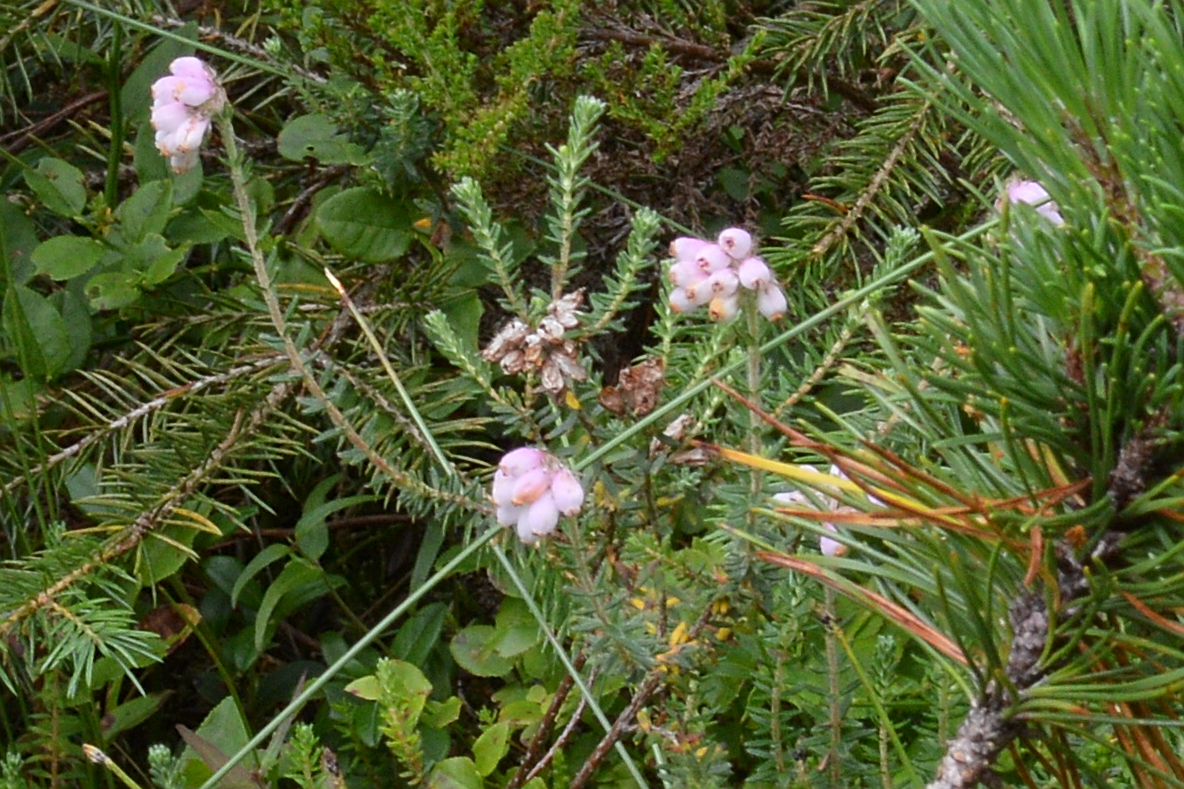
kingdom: Plantae
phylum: Tracheophyta
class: Magnoliopsida
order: Ericales
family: Ericaceae
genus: Erica
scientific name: Erica tetralix
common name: Cross-leaved heath
